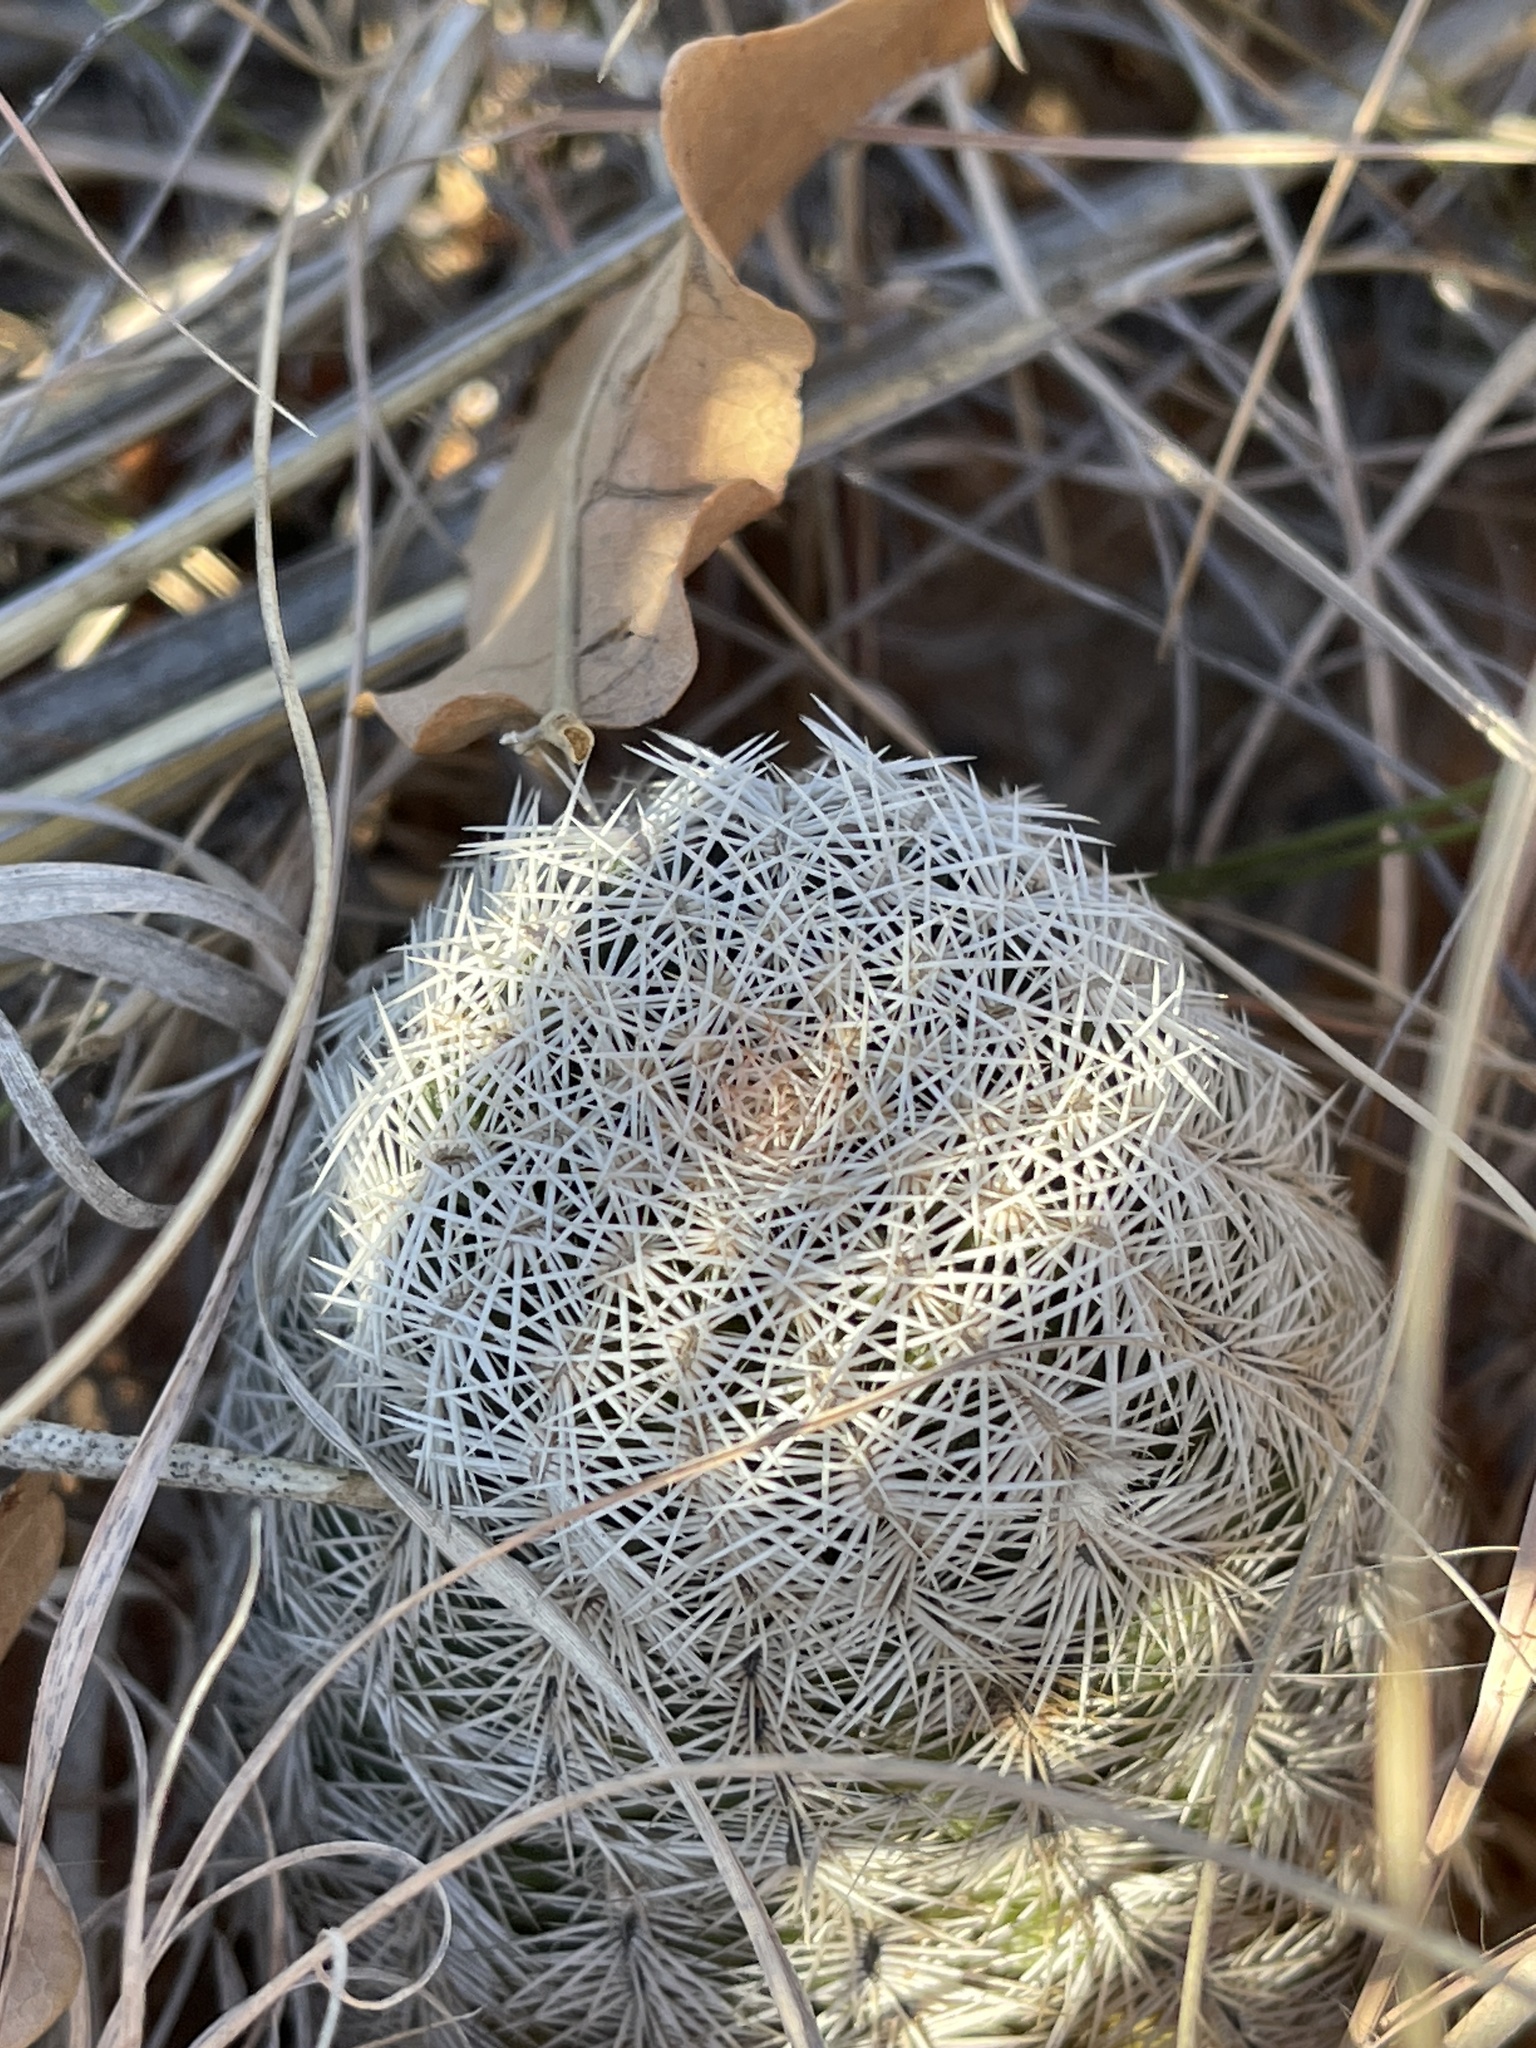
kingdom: Plantae
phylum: Tracheophyta
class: Magnoliopsida
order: Caryophyllales
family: Cactaceae
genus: Echinocereus
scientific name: Echinocereus reichenbachii
